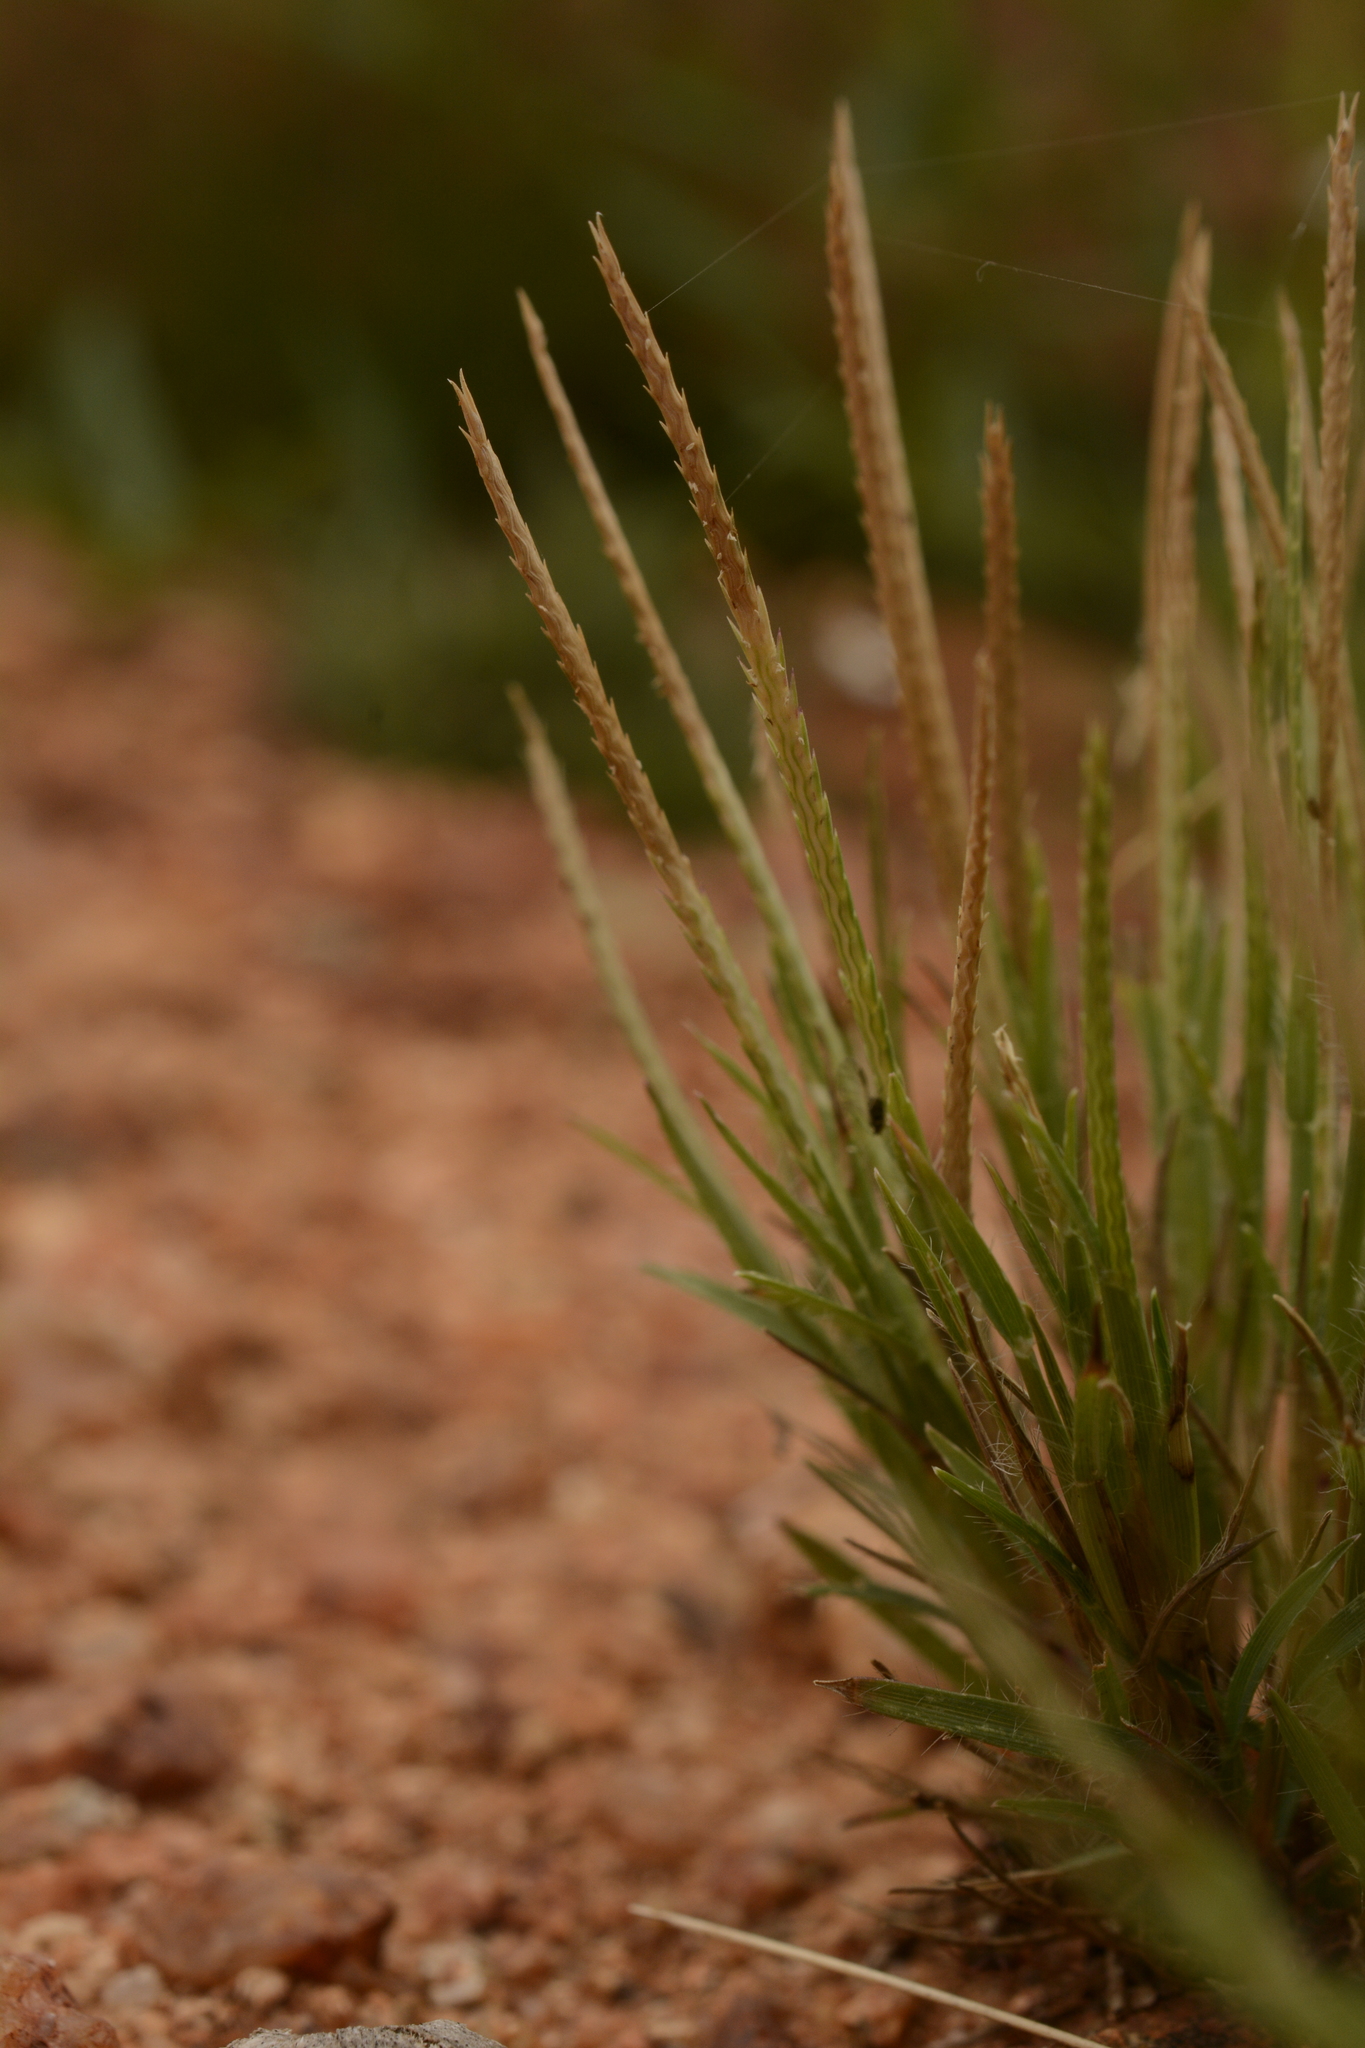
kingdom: Plantae
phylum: Tracheophyta
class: Liliopsida
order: Poales
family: Poaceae
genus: Oropetium
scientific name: Oropetium thomaeum
